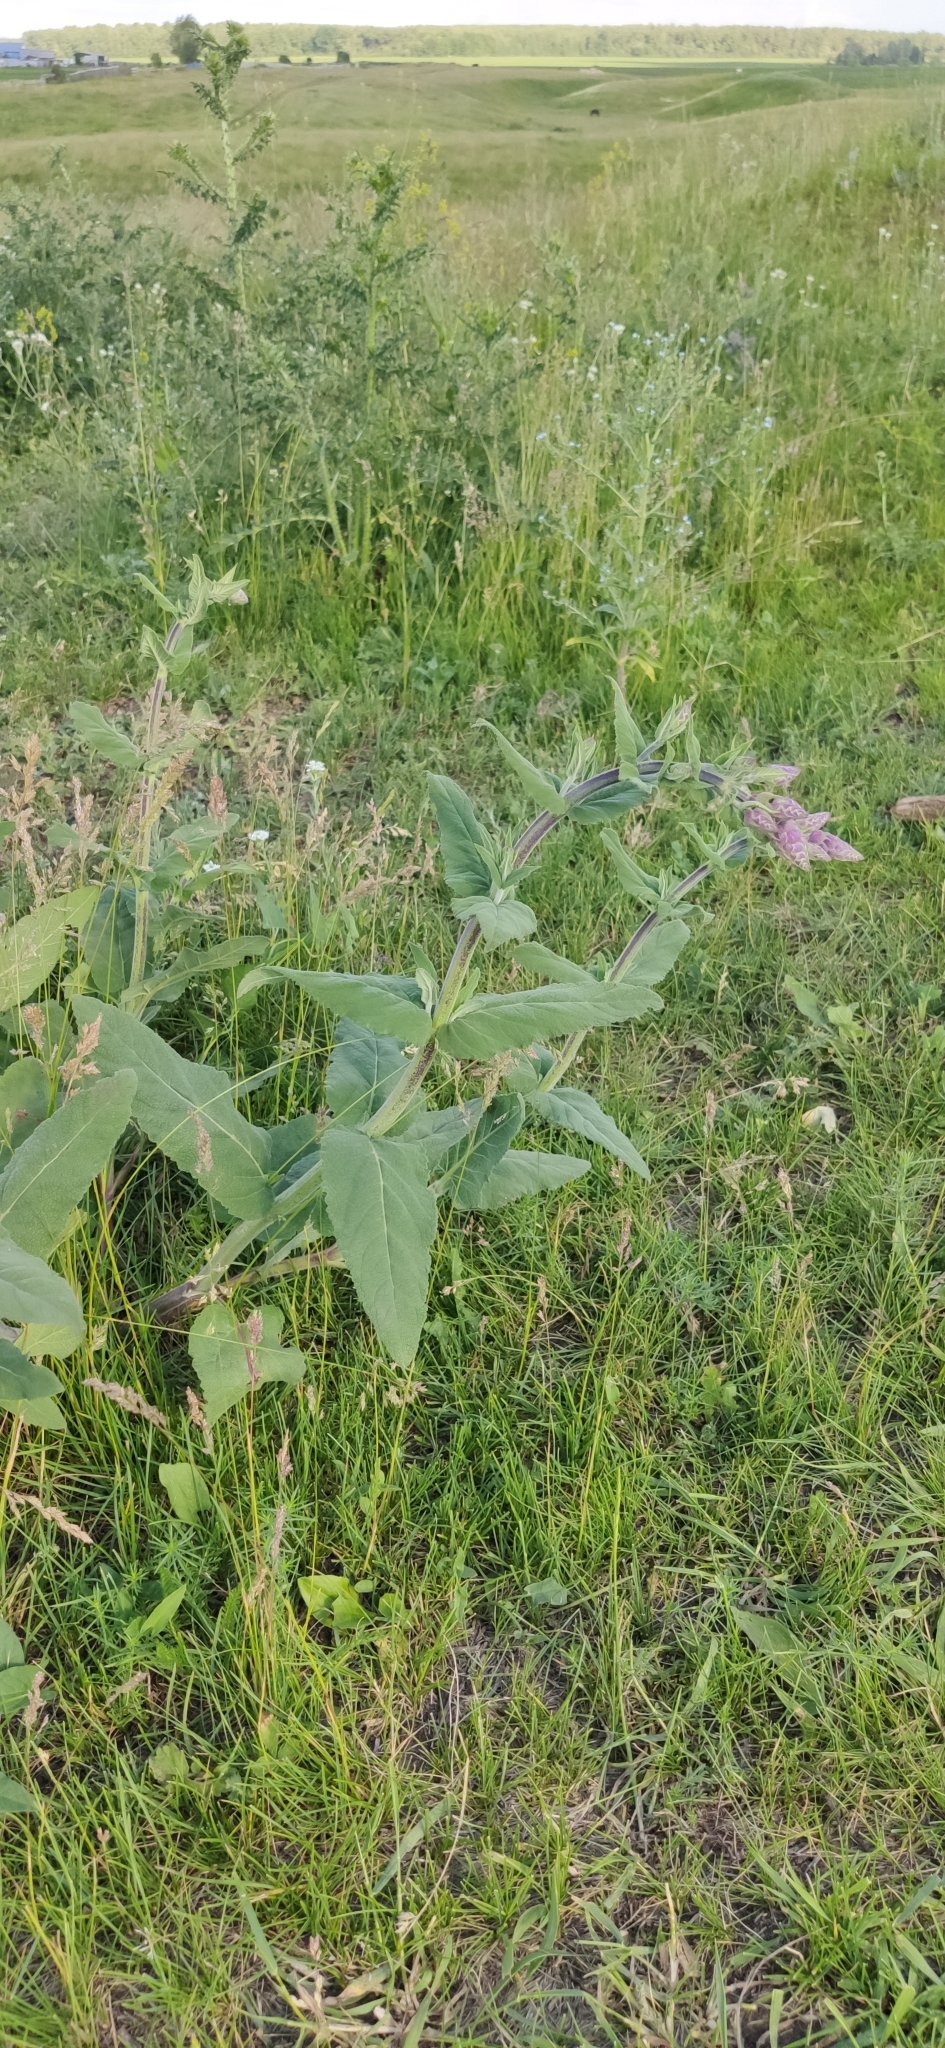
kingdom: Plantae
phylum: Tracheophyta
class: Magnoliopsida
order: Lamiales
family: Lamiaceae
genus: Salvia
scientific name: Salvia nemorosa
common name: Balkan clary
